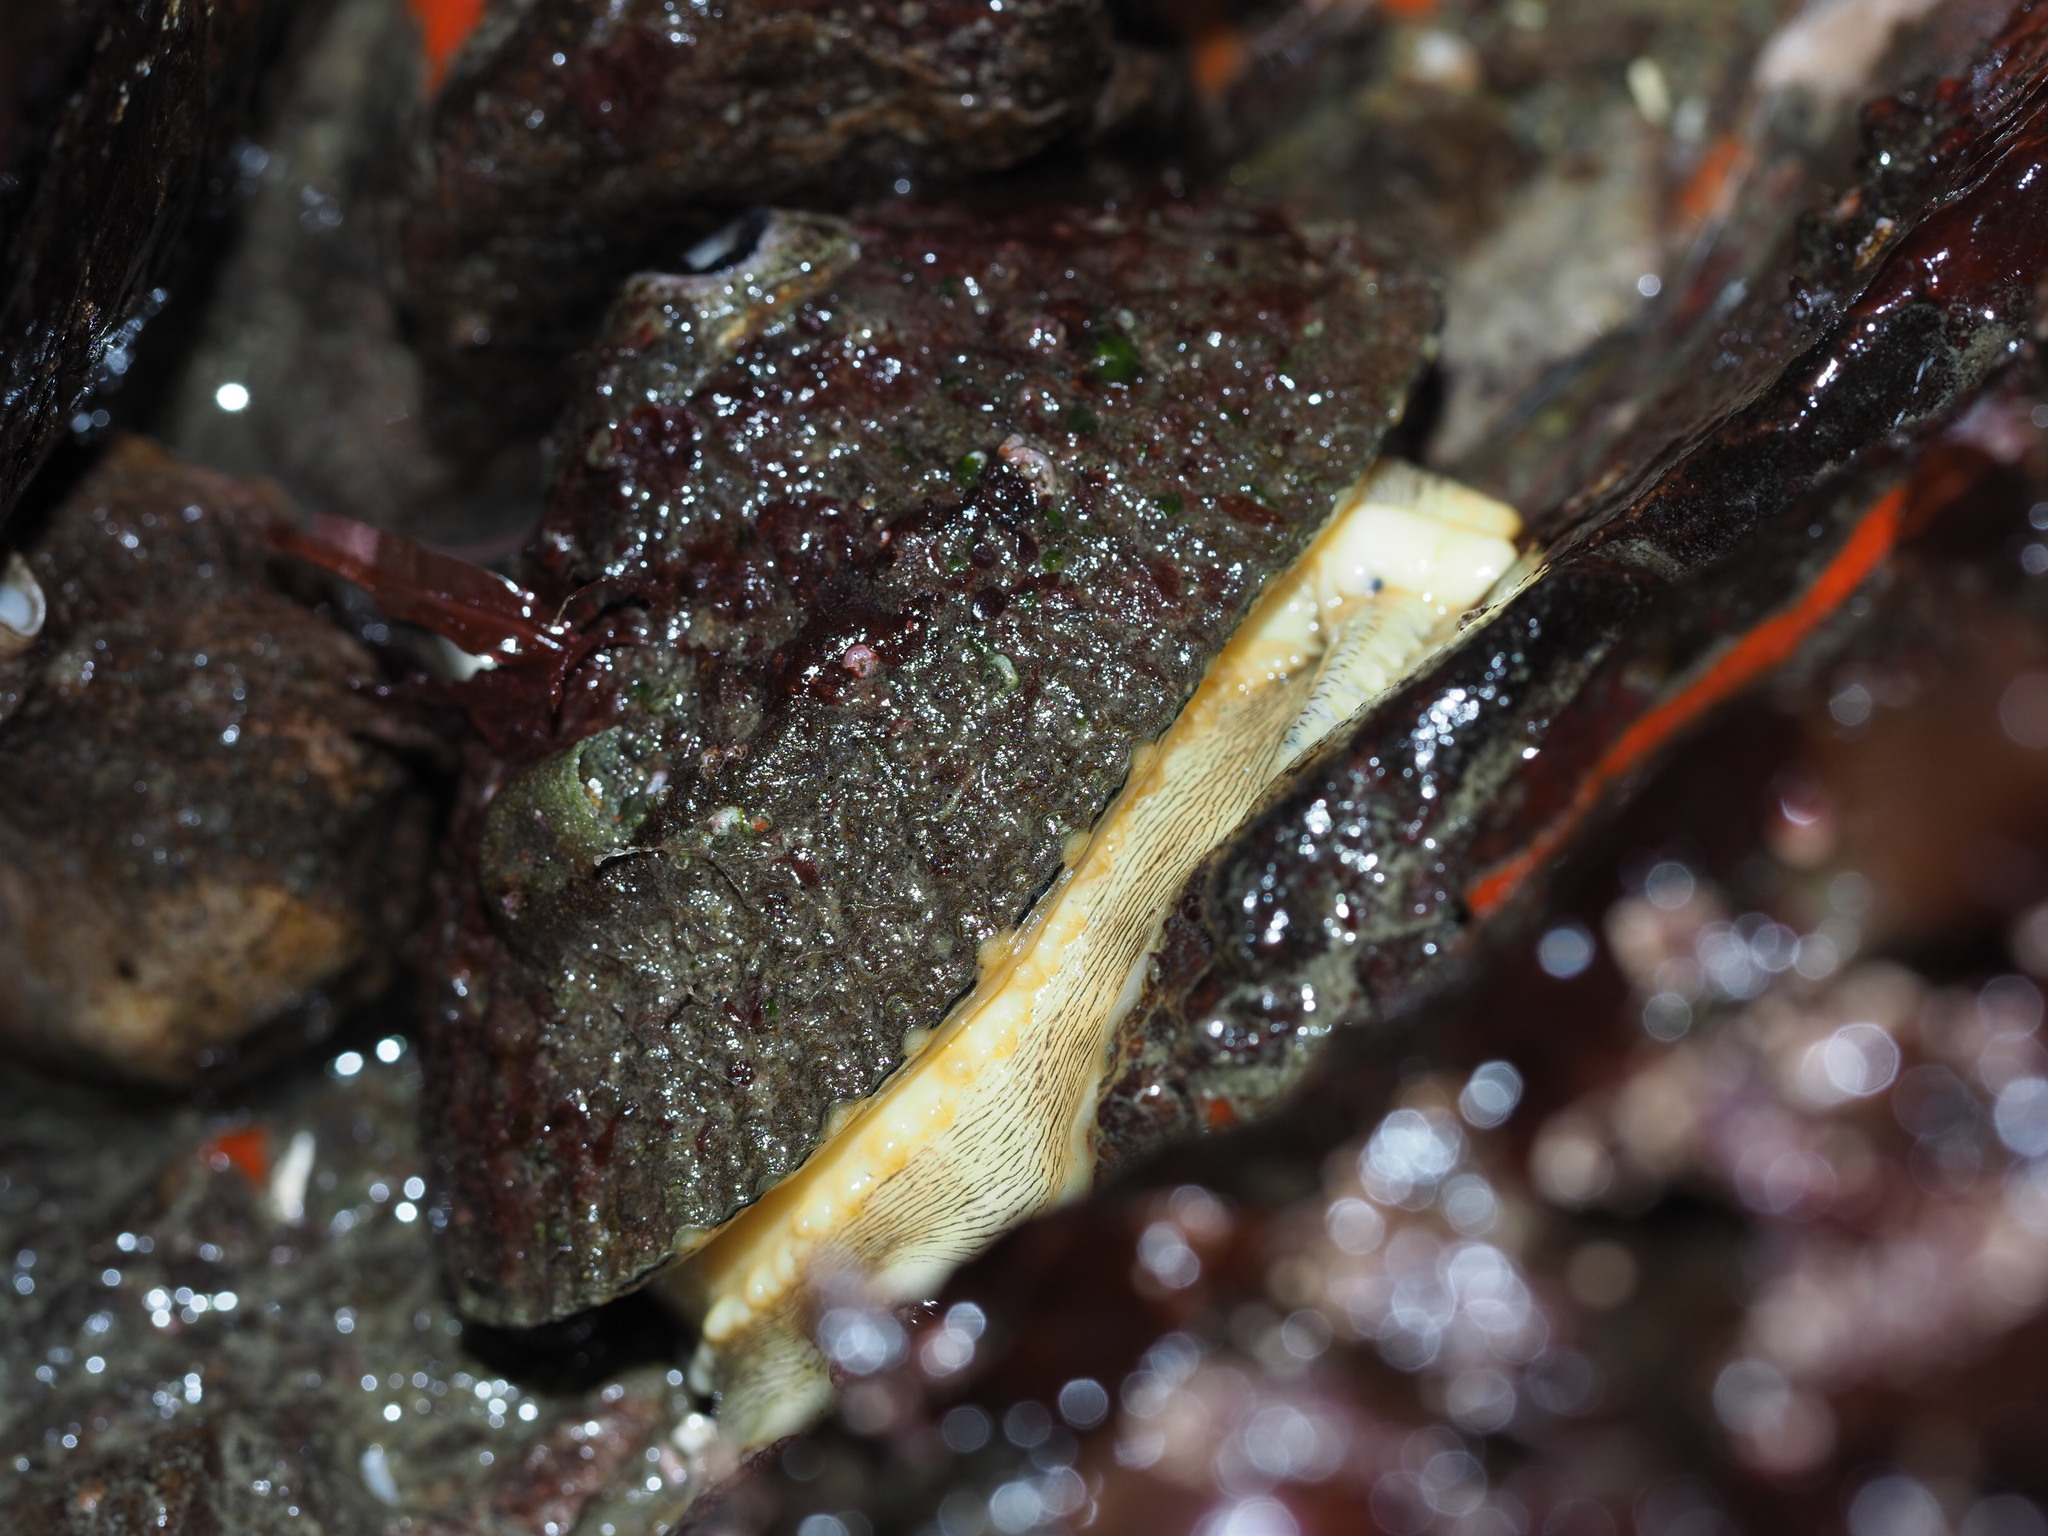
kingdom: Animalia
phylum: Mollusca
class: Gastropoda
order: Lepetellida
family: Fissurellidae
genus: Diodora
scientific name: Diodora aspera
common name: Rough keyhole limpet
